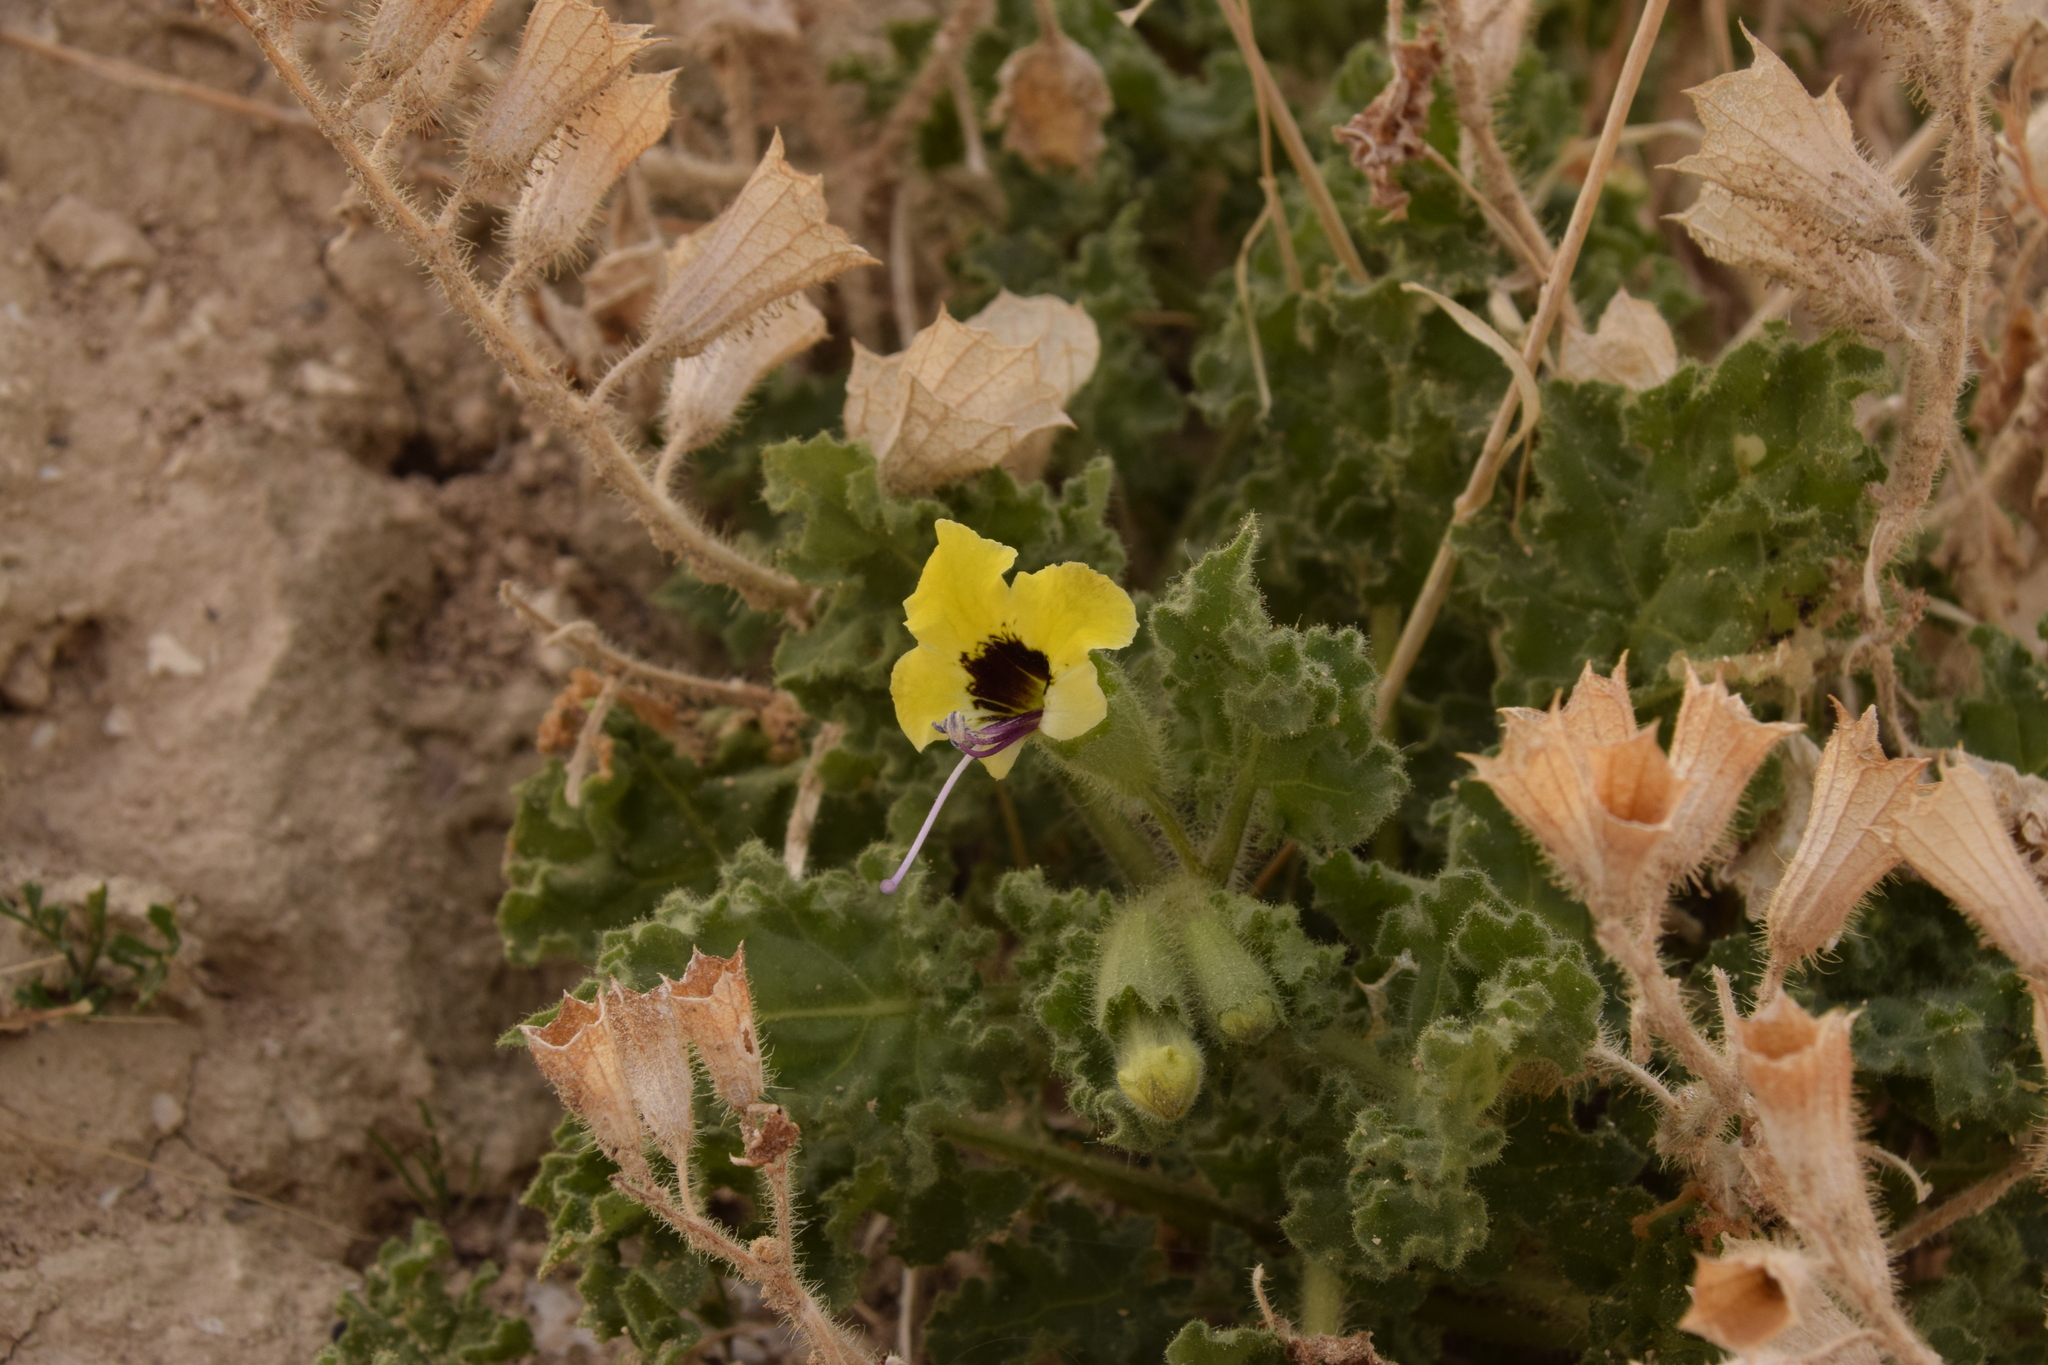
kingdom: Plantae
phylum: Tracheophyta
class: Magnoliopsida
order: Solanales
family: Solanaceae
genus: Hyoscyamus
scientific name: Hyoscyamus aureus
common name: Golden henbane
